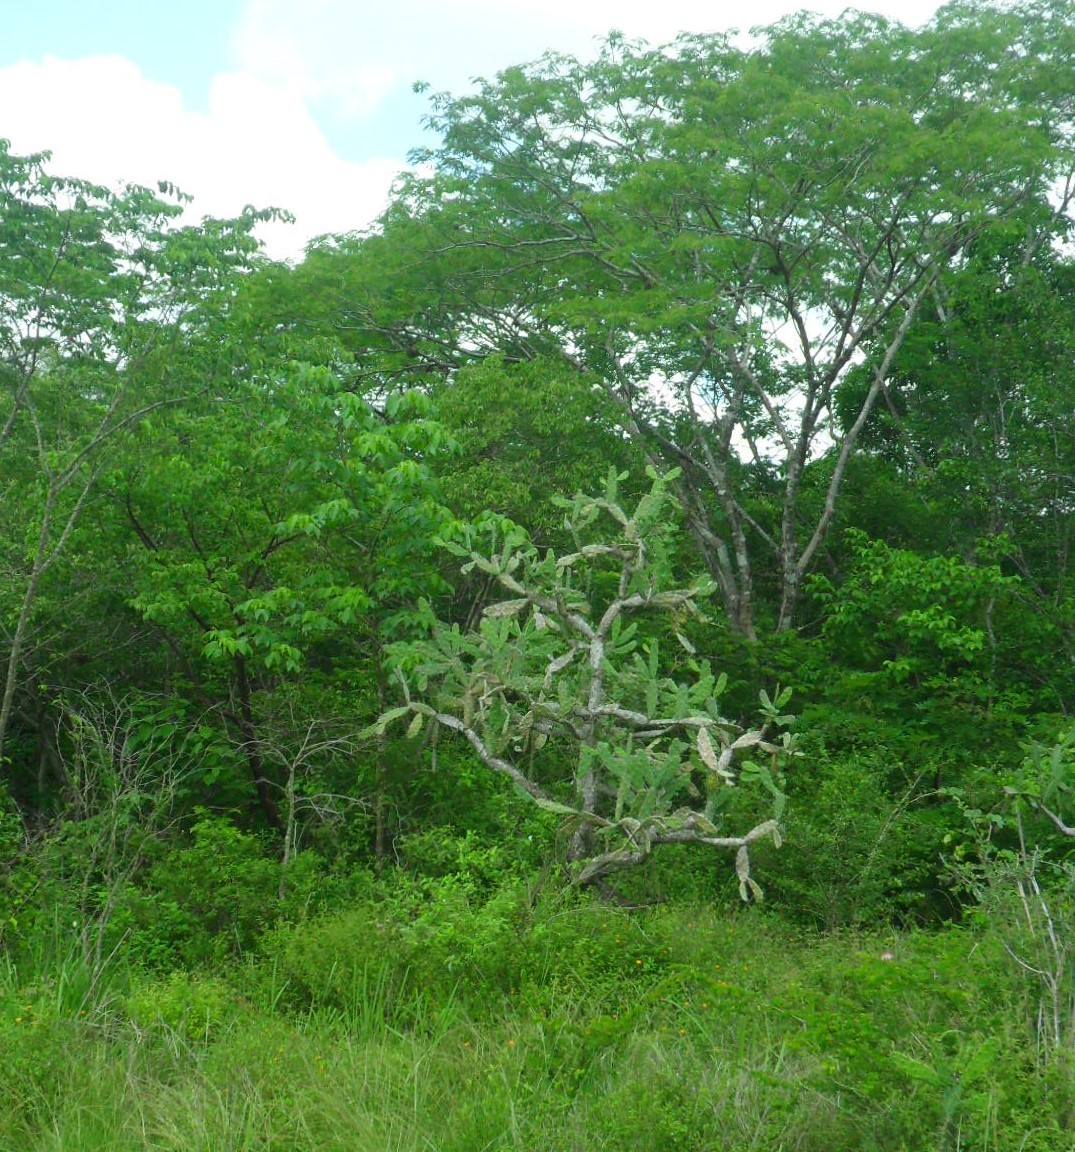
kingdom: Plantae
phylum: Tracheophyta
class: Magnoliopsida
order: Caryophyllales
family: Cactaceae
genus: Opuntia
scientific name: Opuntia dejecta
